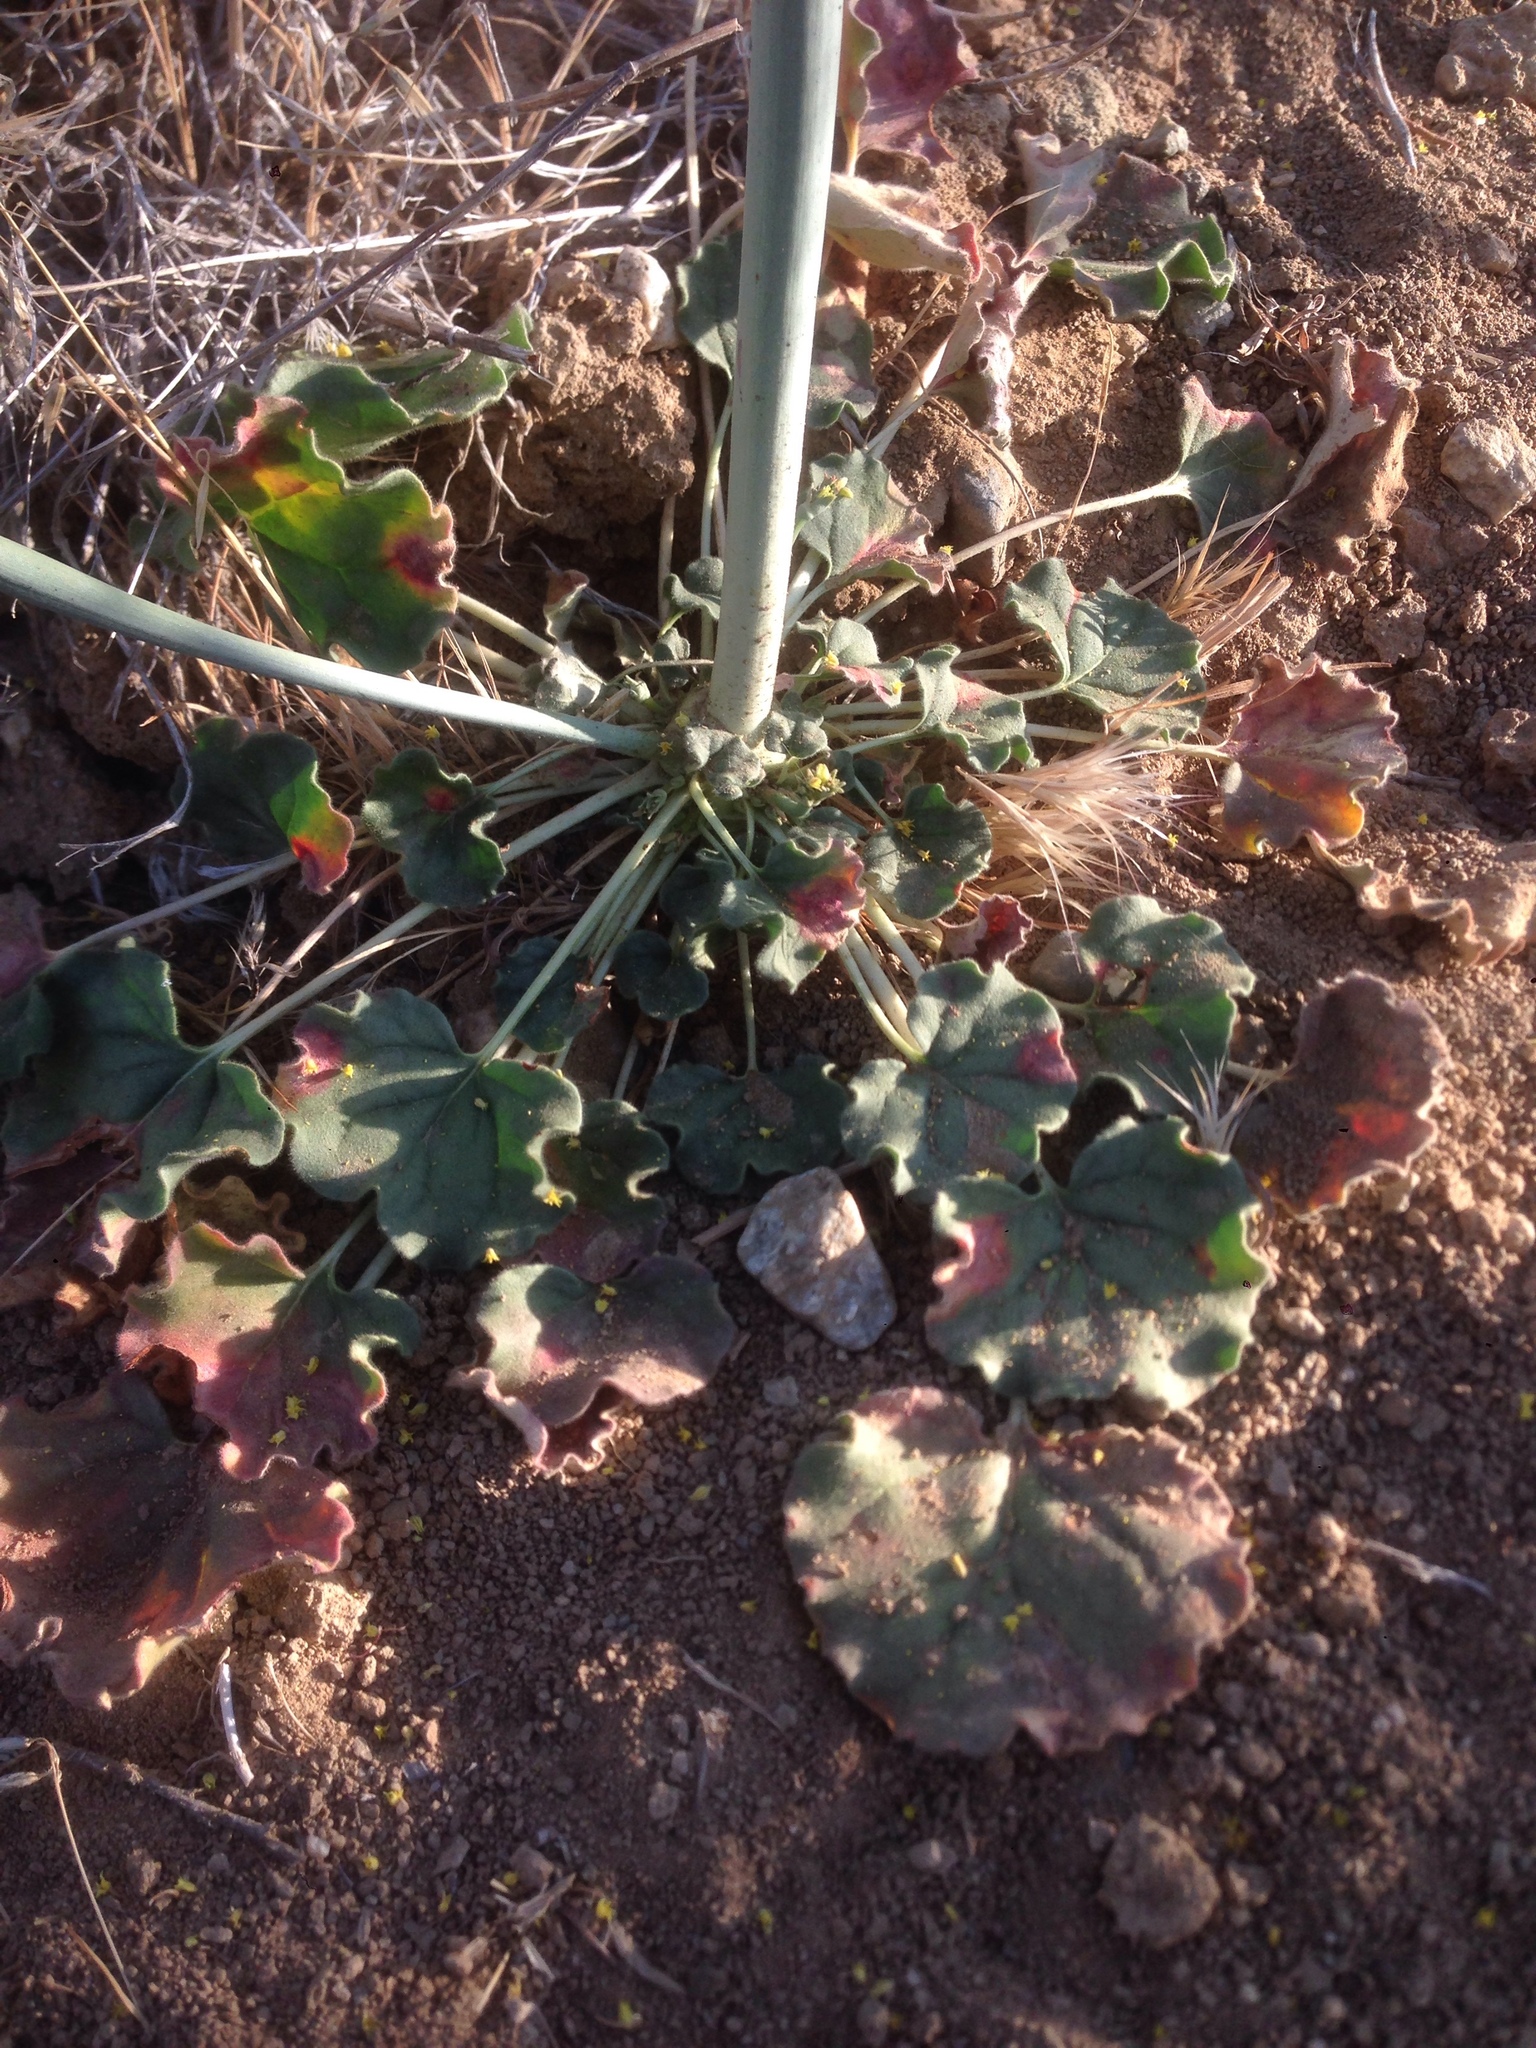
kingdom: Plantae
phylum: Tracheophyta
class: Magnoliopsida
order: Caryophyllales
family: Polygonaceae
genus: Eriogonum
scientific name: Eriogonum clavatum
